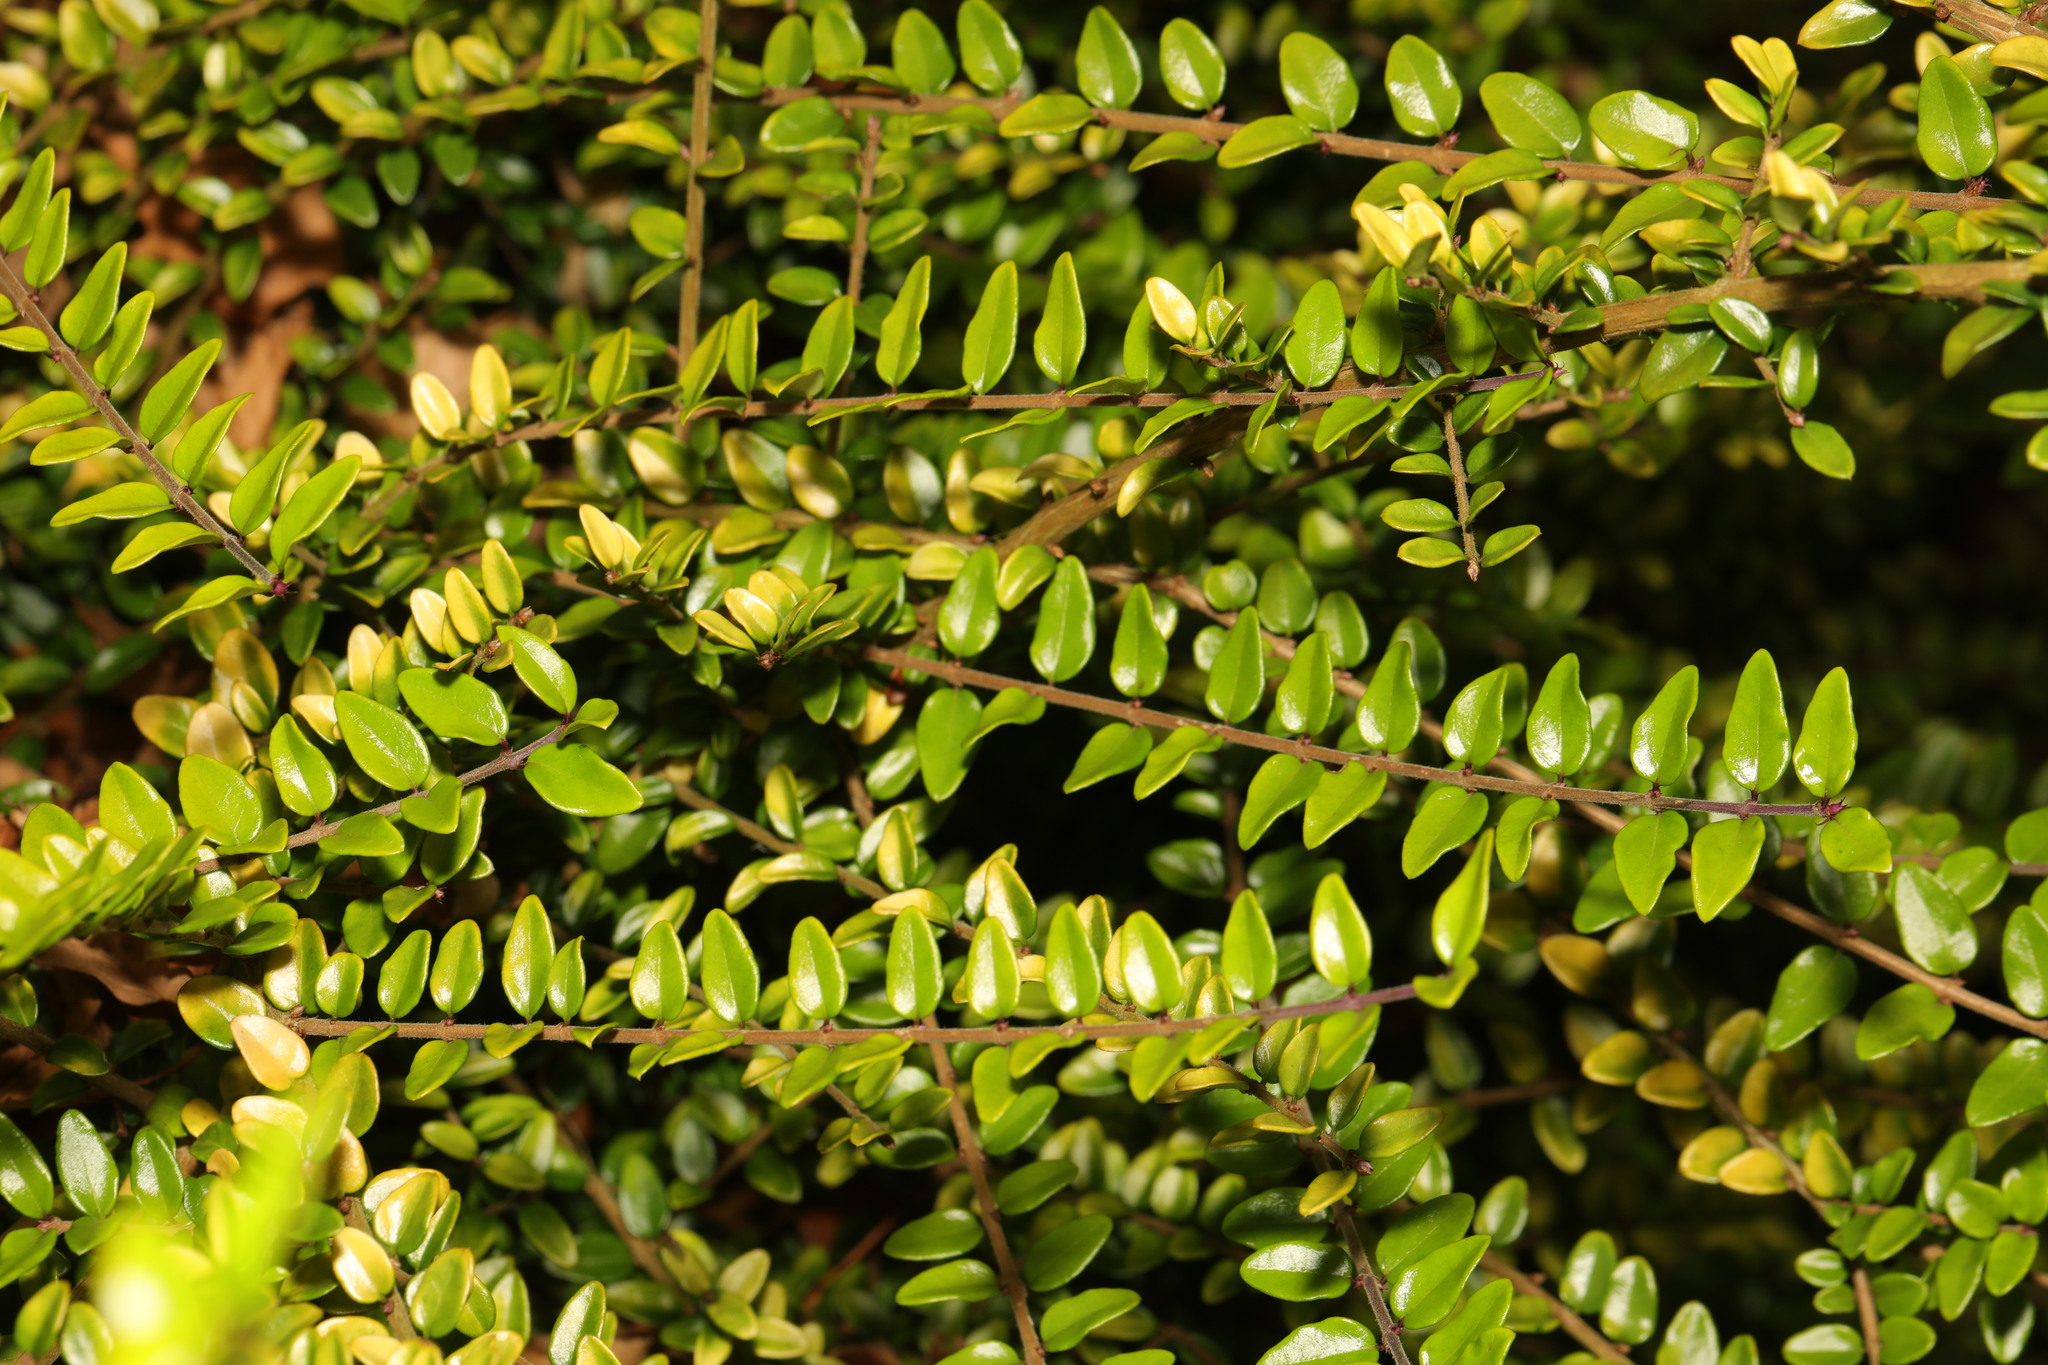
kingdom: Plantae
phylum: Tracheophyta
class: Magnoliopsida
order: Dipsacales
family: Caprifoliaceae
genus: Lonicera
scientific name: Lonicera pileata
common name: Box-leaved honeysuckle
